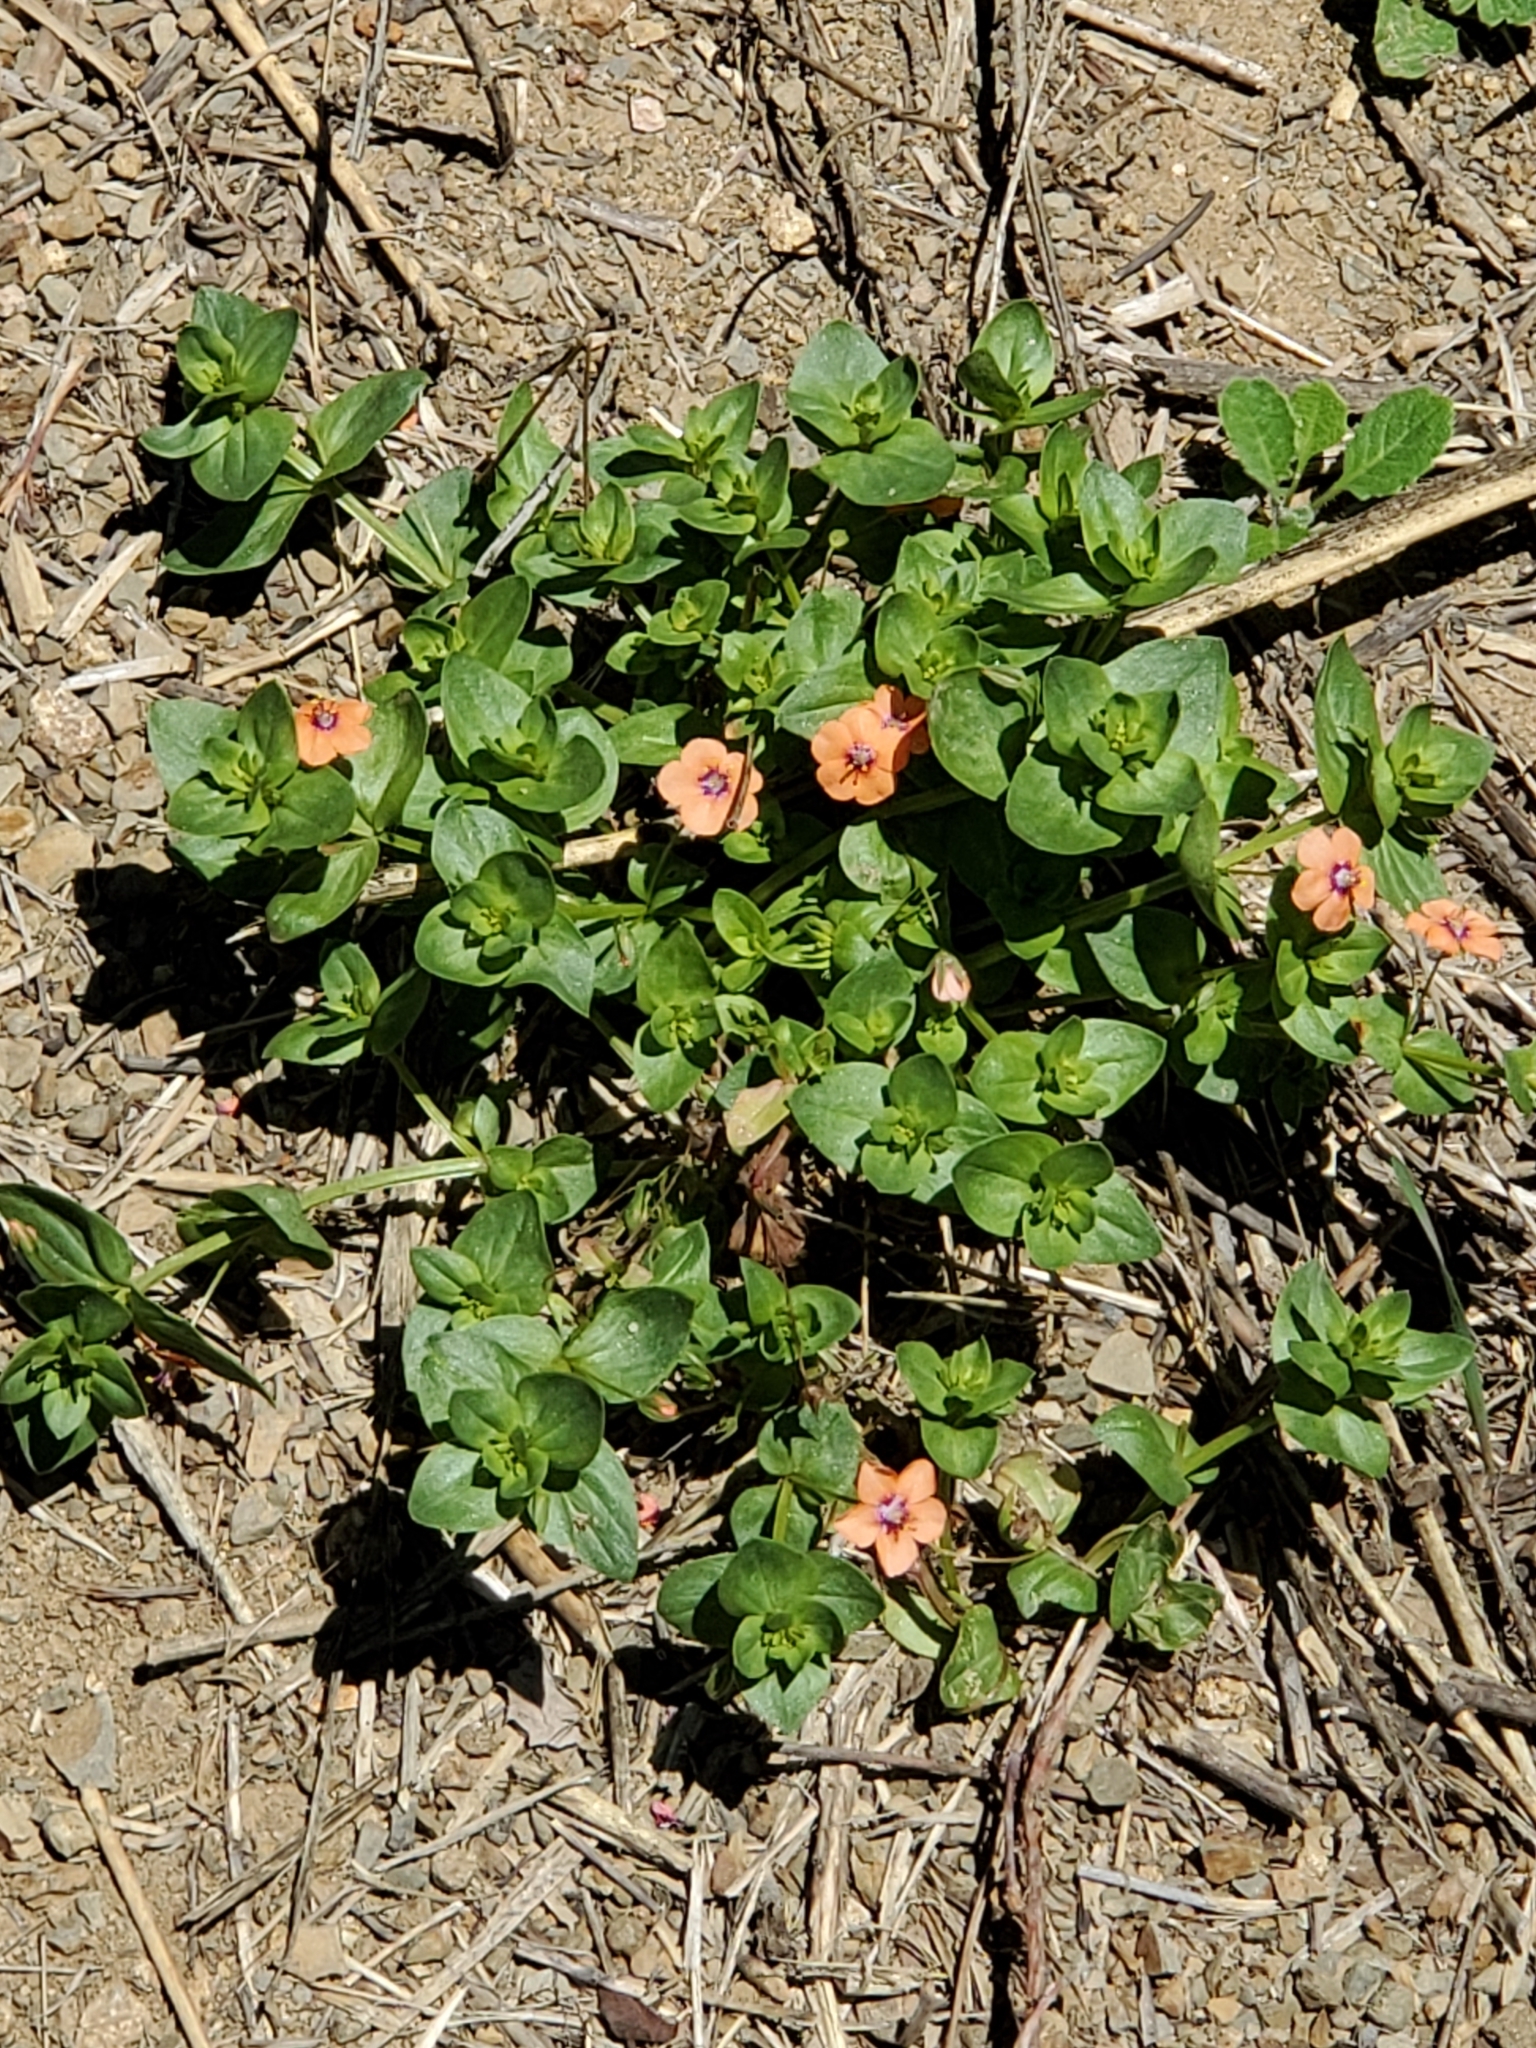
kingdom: Plantae
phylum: Tracheophyta
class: Magnoliopsida
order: Ericales
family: Primulaceae
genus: Lysimachia
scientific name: Lysimachia arvensis
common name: Scarlet pimpernel
